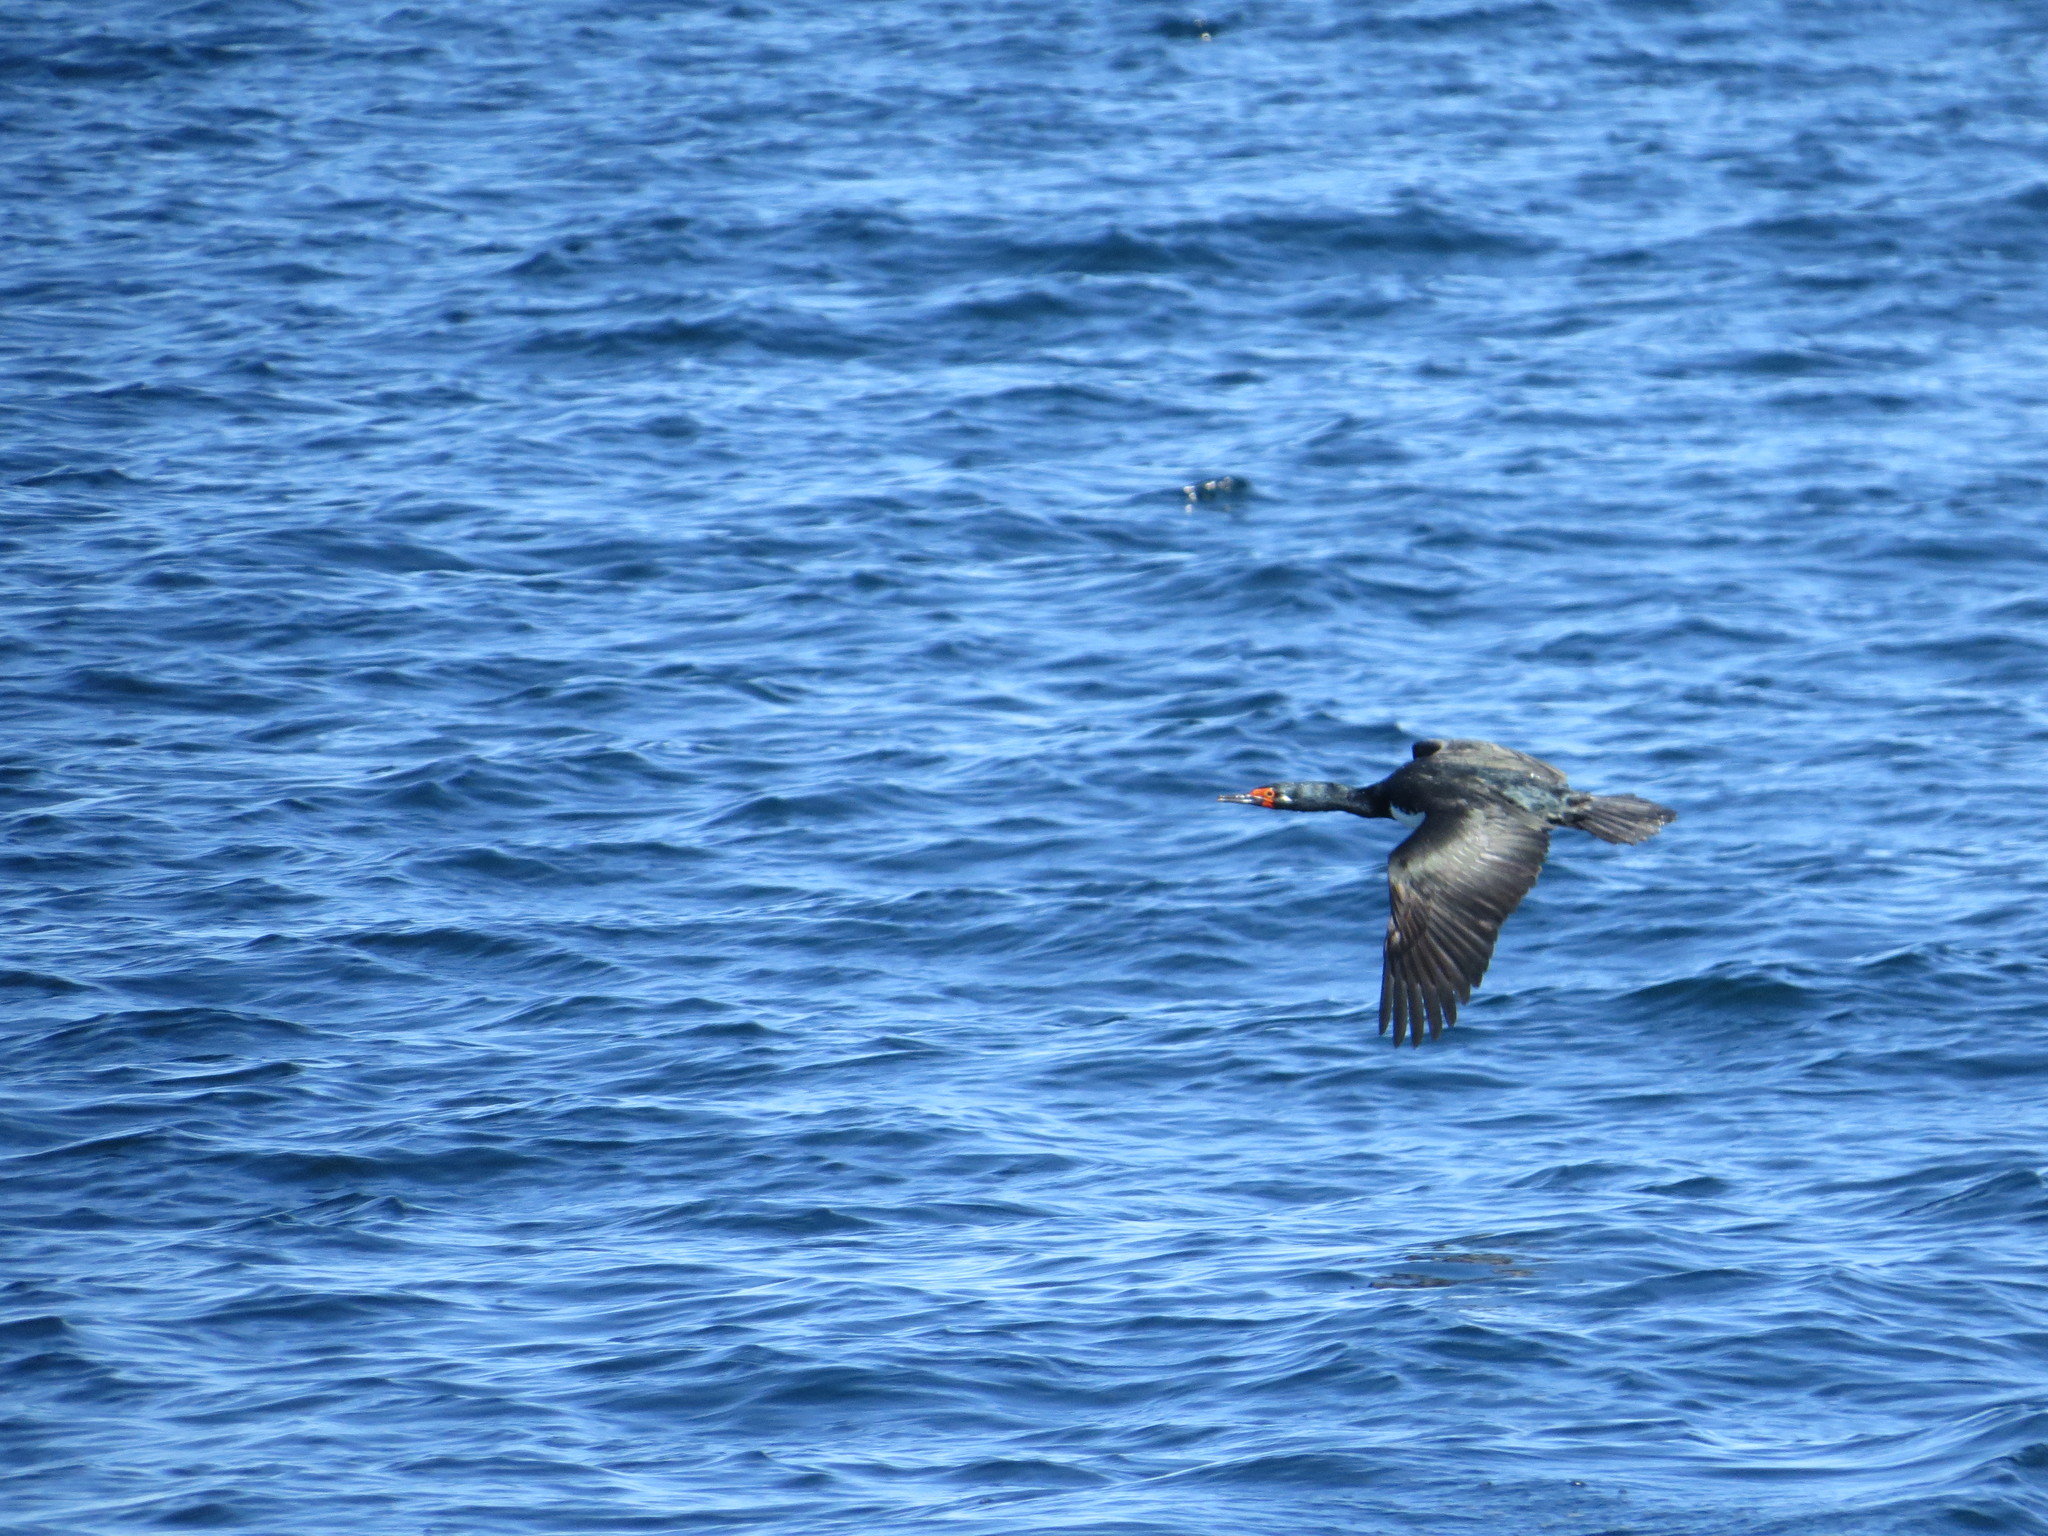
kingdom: Animalia
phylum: Chordata
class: Aves
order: Suliformes
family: Phalacrocoracidae
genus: Phalacrocorax
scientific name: Phalacrocorax magellanicus
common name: Rock shag
